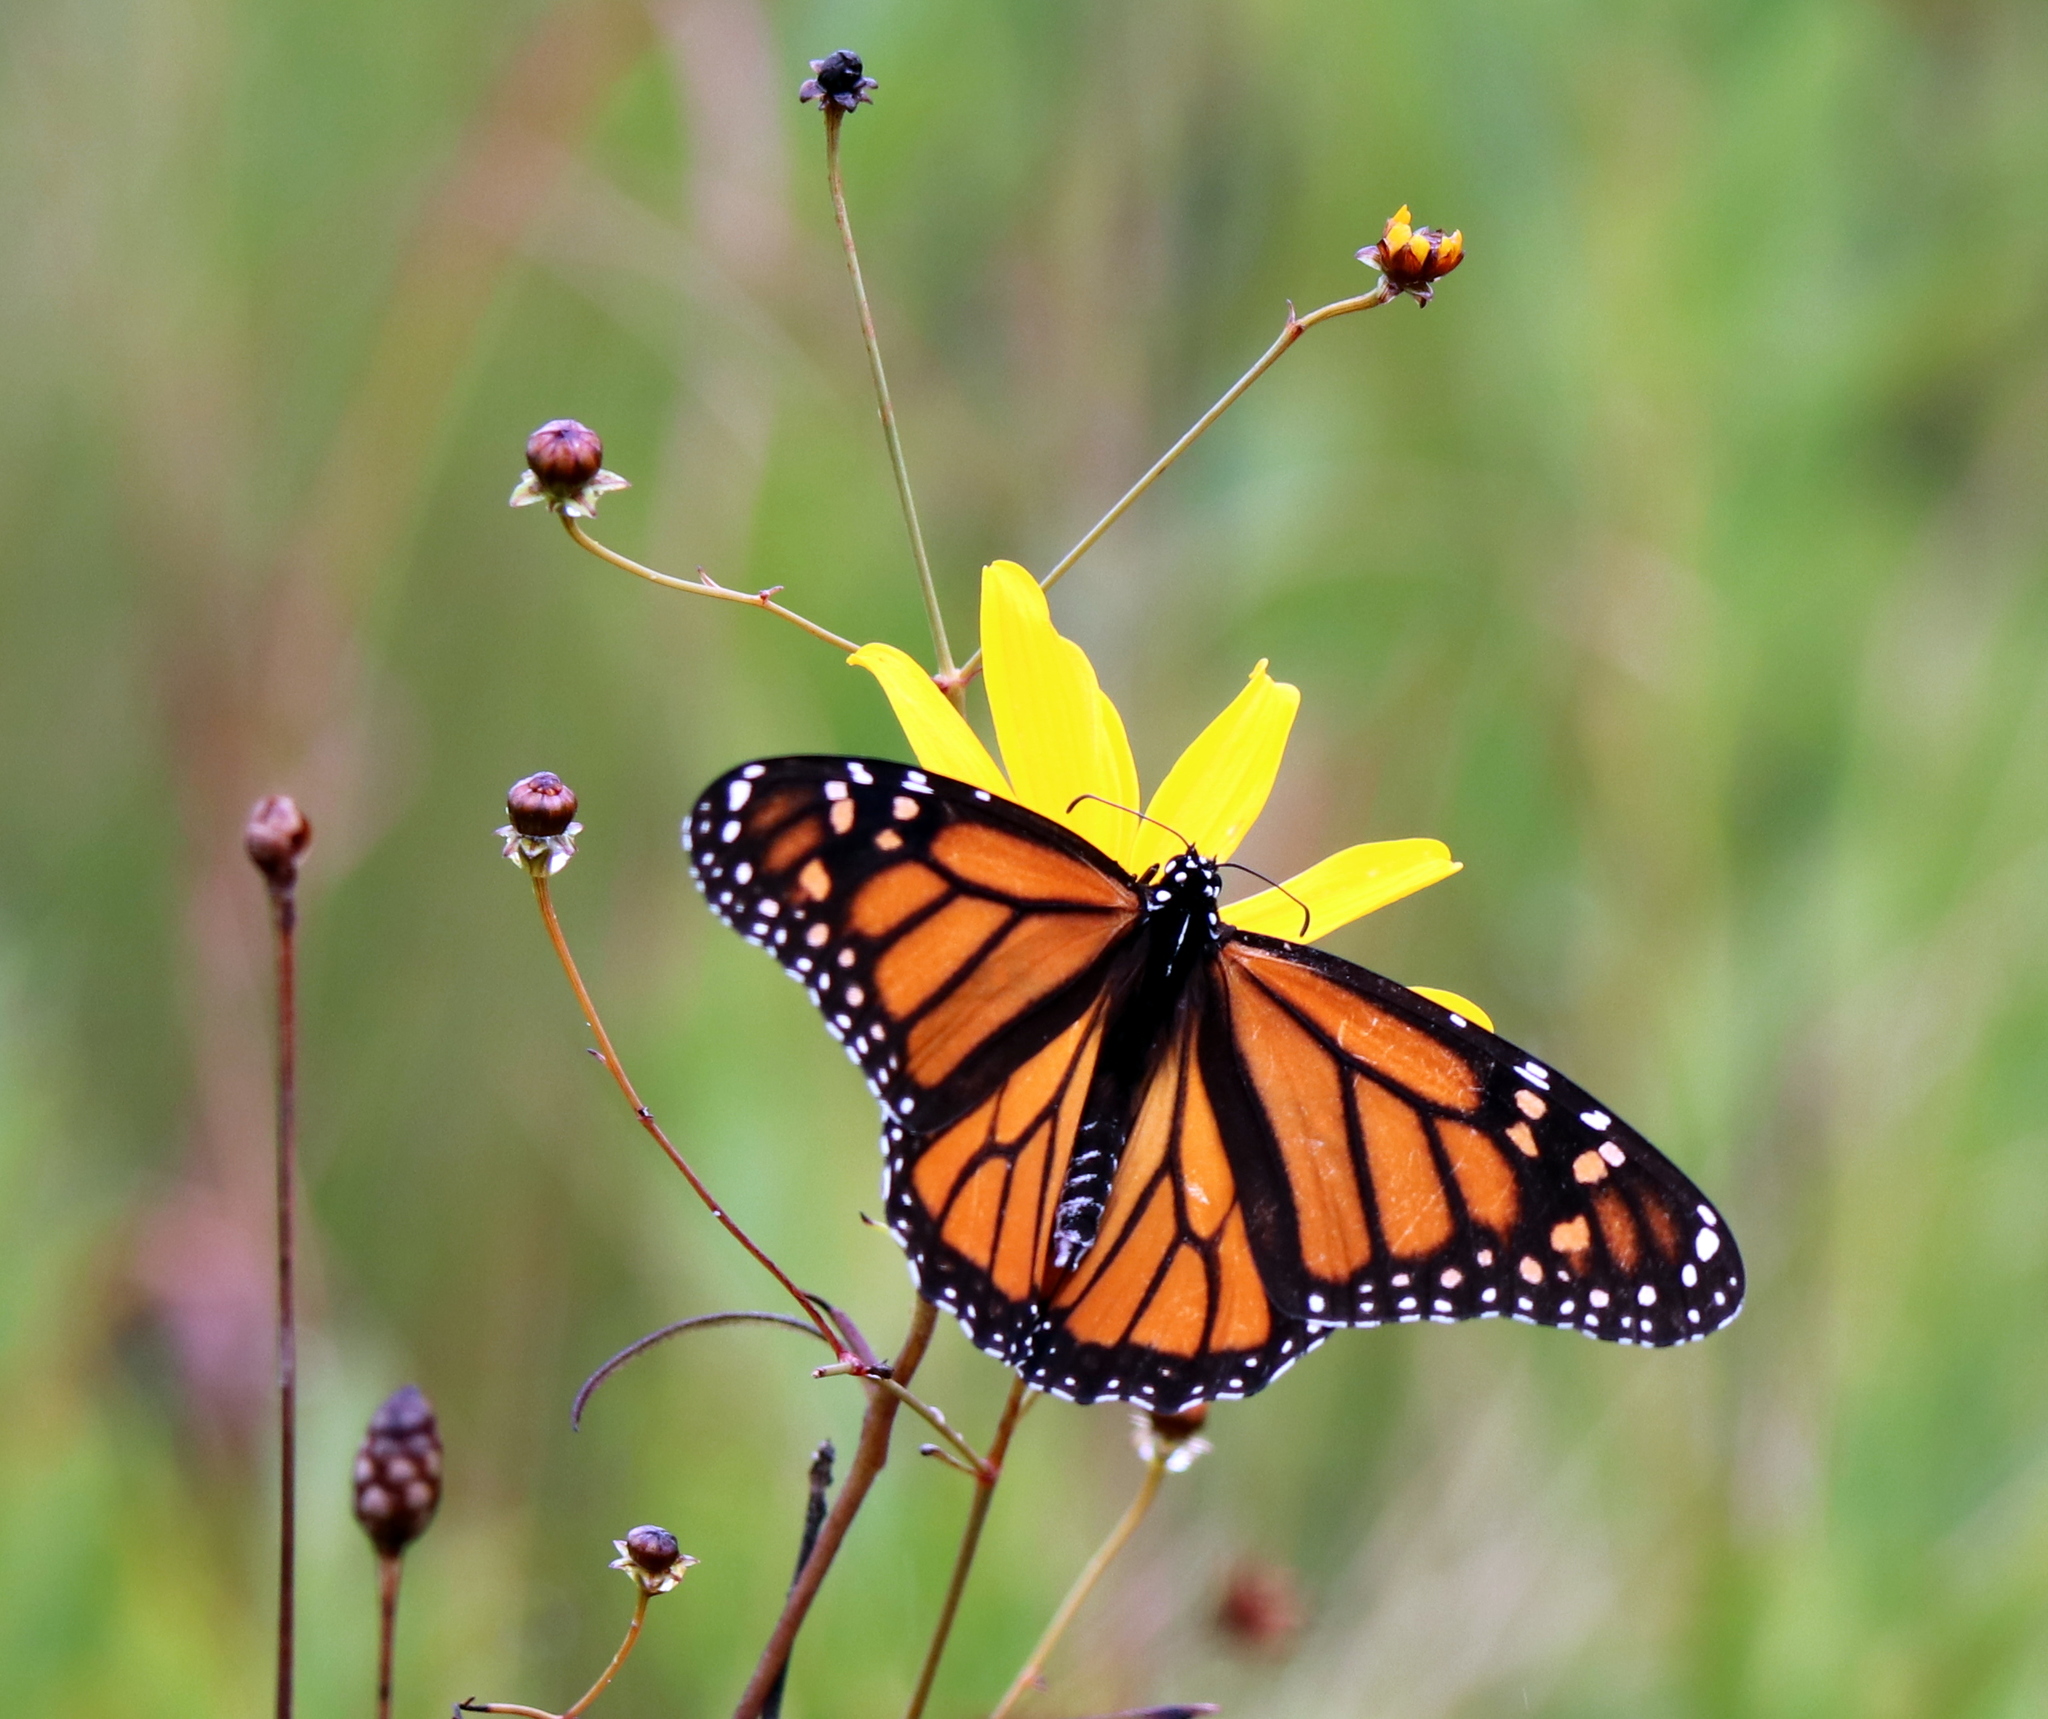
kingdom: Animalia
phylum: Arthropoda
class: Insecta
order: Lepidoptera
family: Nymphalidae
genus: Danaus
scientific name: Danaus plexippus
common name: Monarch
